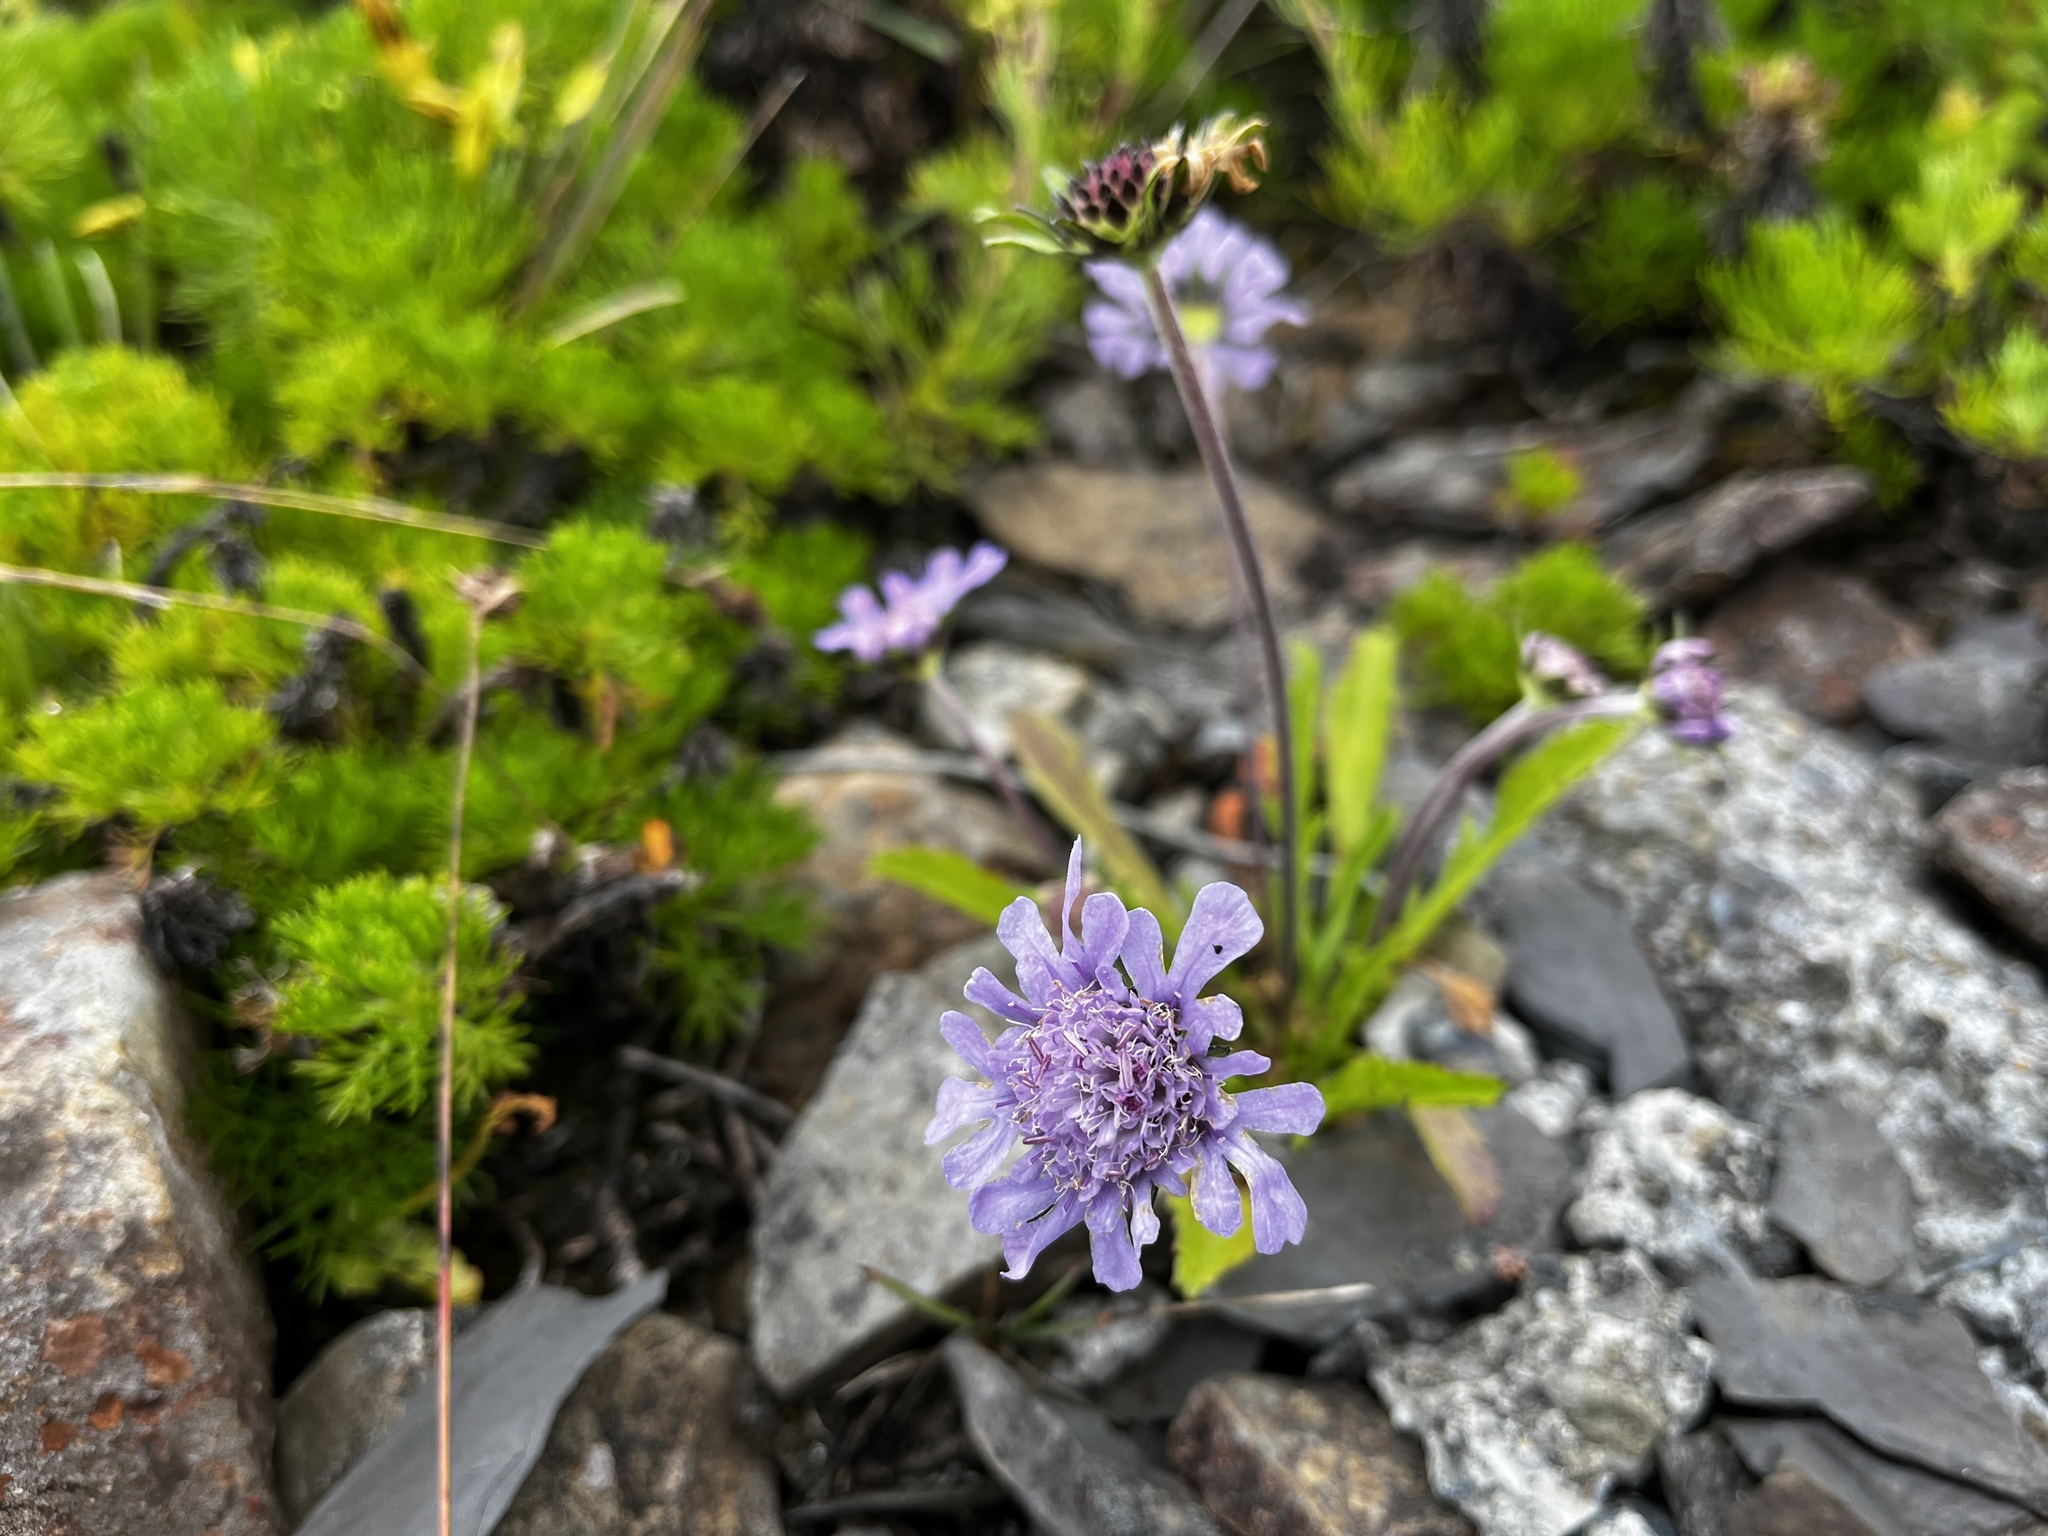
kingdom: Plantae
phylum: Tracheophyta
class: Magnoliopsida
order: Dipsacales
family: Caprifoliaceae
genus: Scabiosa
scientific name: Scabiosa lacerifolia
